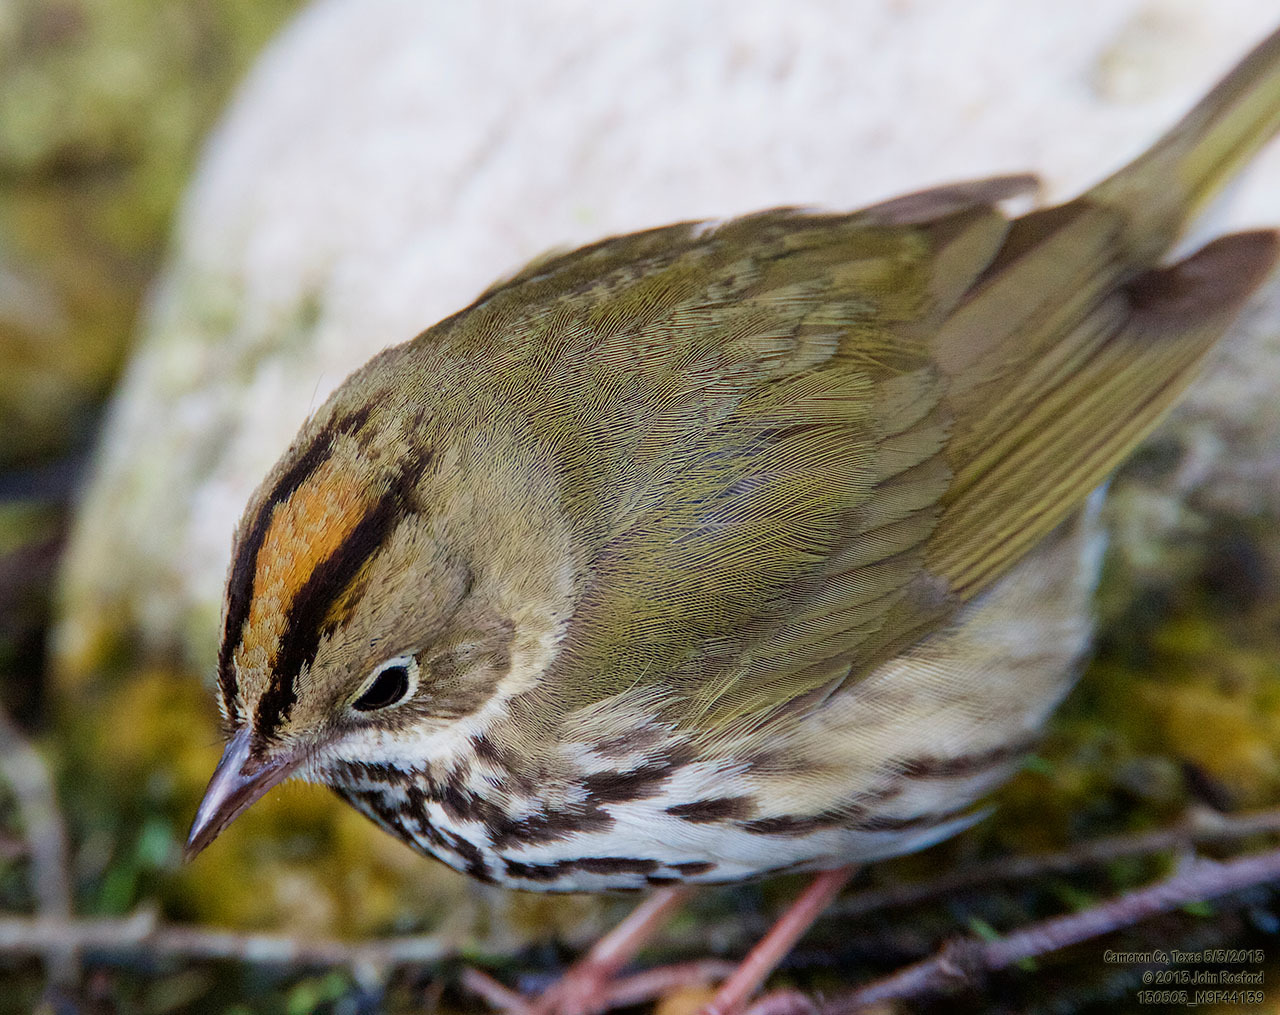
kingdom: Animalia
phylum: Chordata
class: Aves
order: Passeriformes
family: Parulidae
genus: Seiurus
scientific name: Seiurus aurocapilla
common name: Ovenbird
